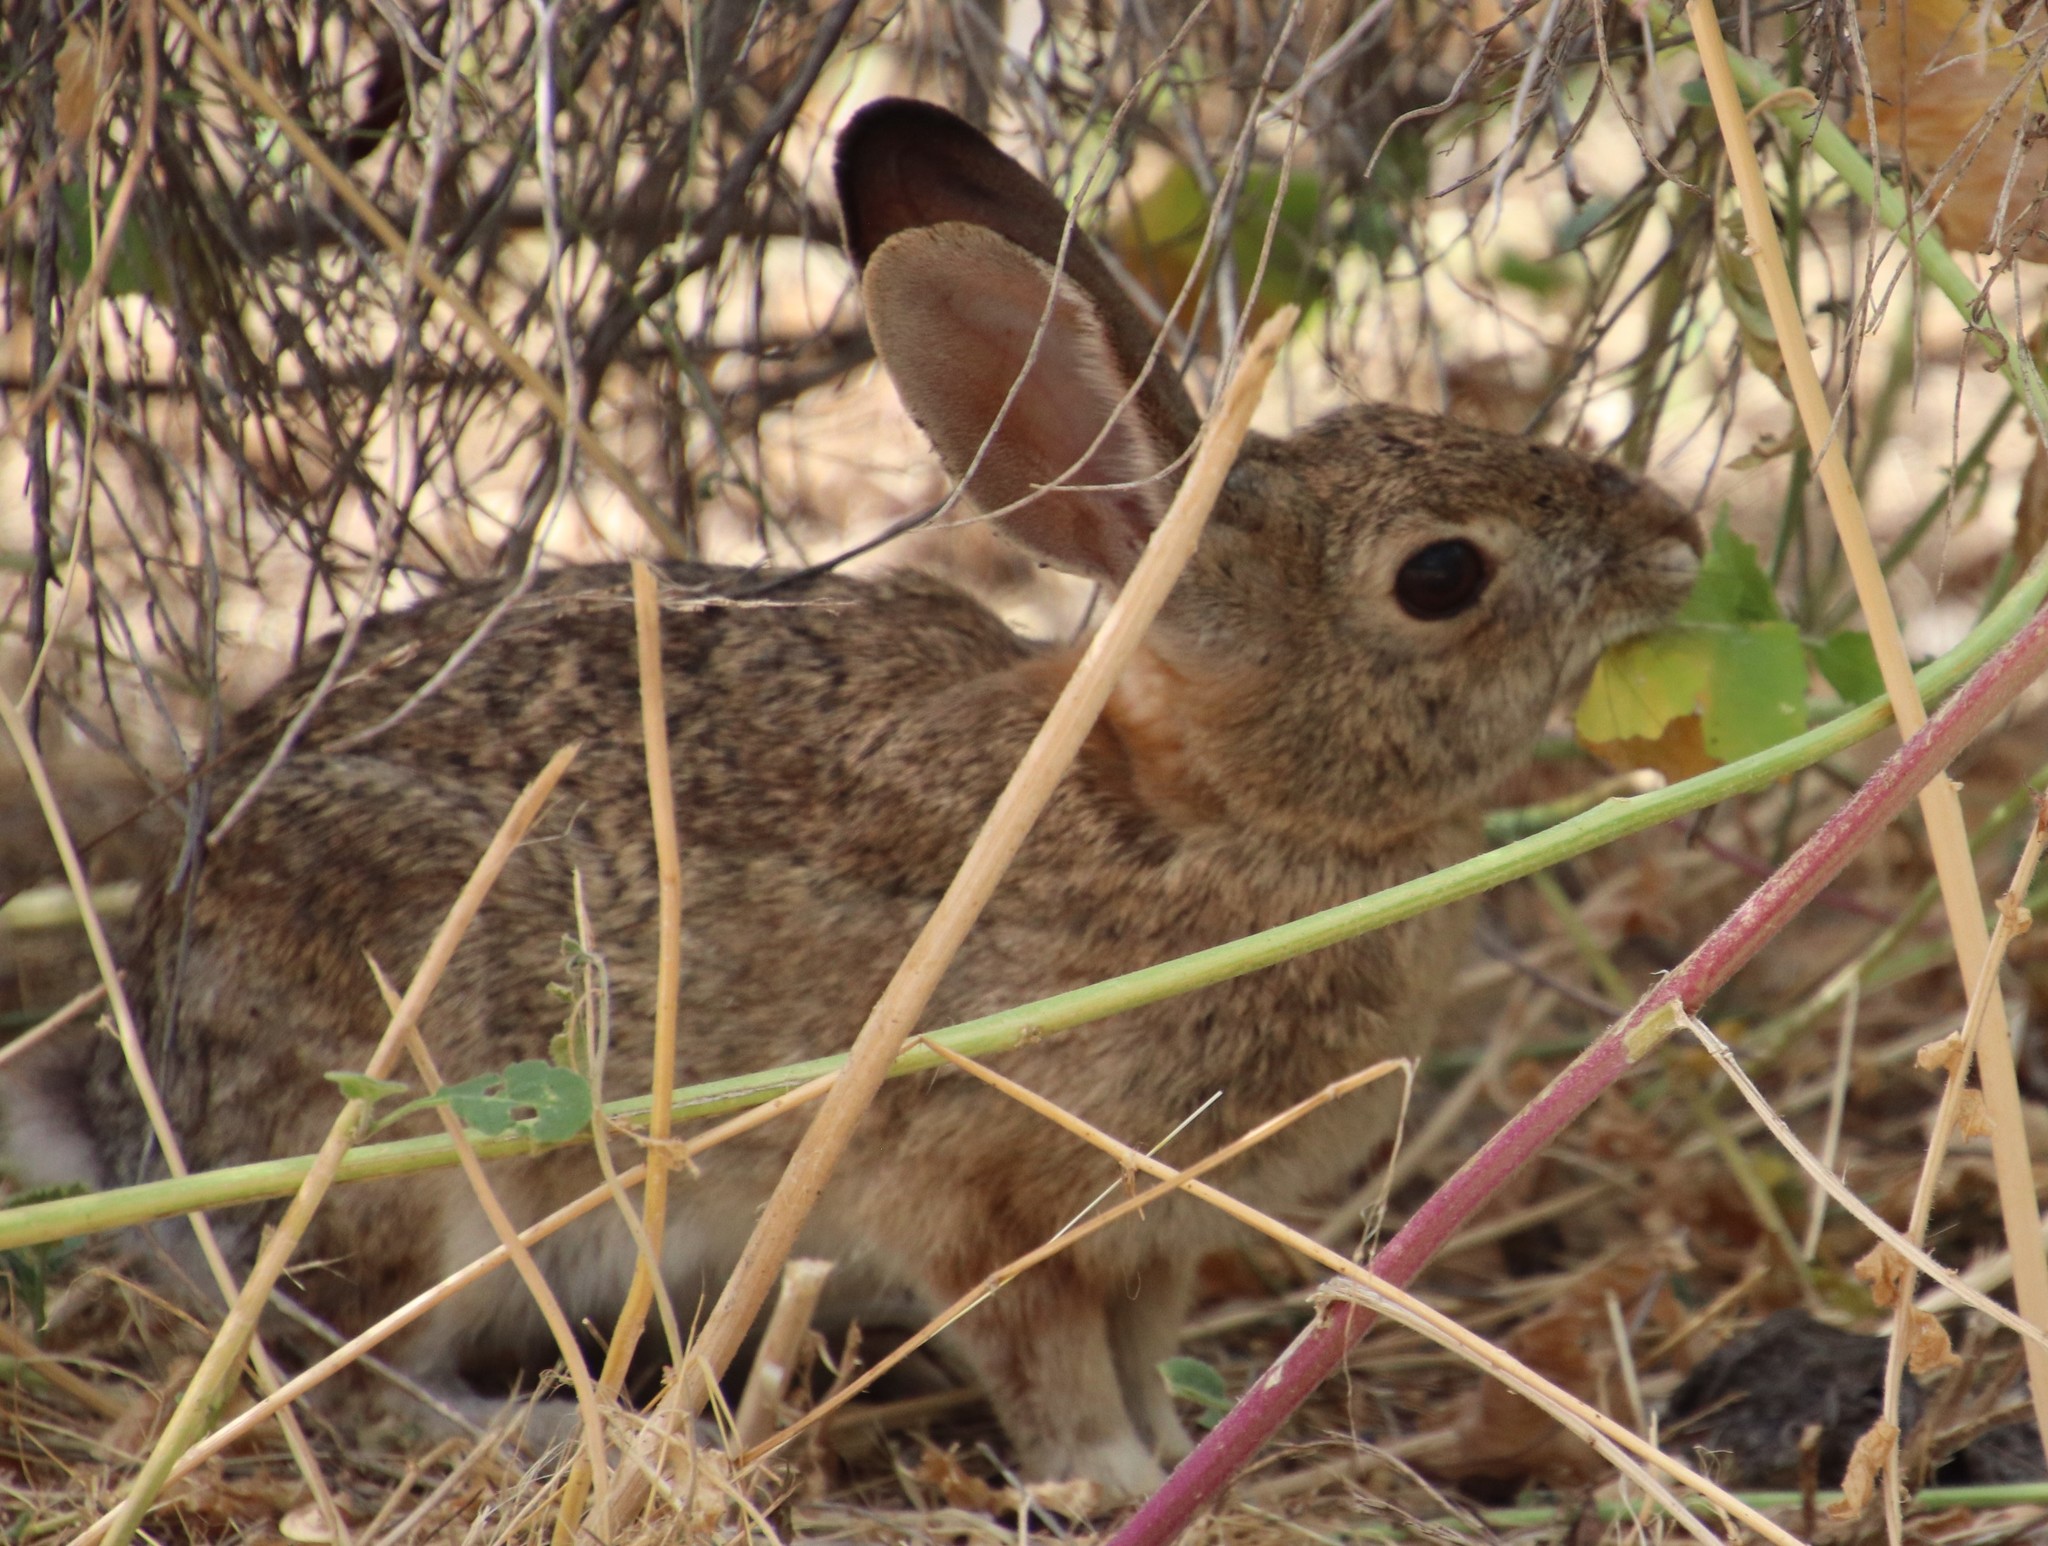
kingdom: Animalia
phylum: Chordata
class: Mammalia
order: Lagomorpha
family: Leporidae
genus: Sylvilagus
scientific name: Sylvilagus audubonii
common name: Desert cottontail
